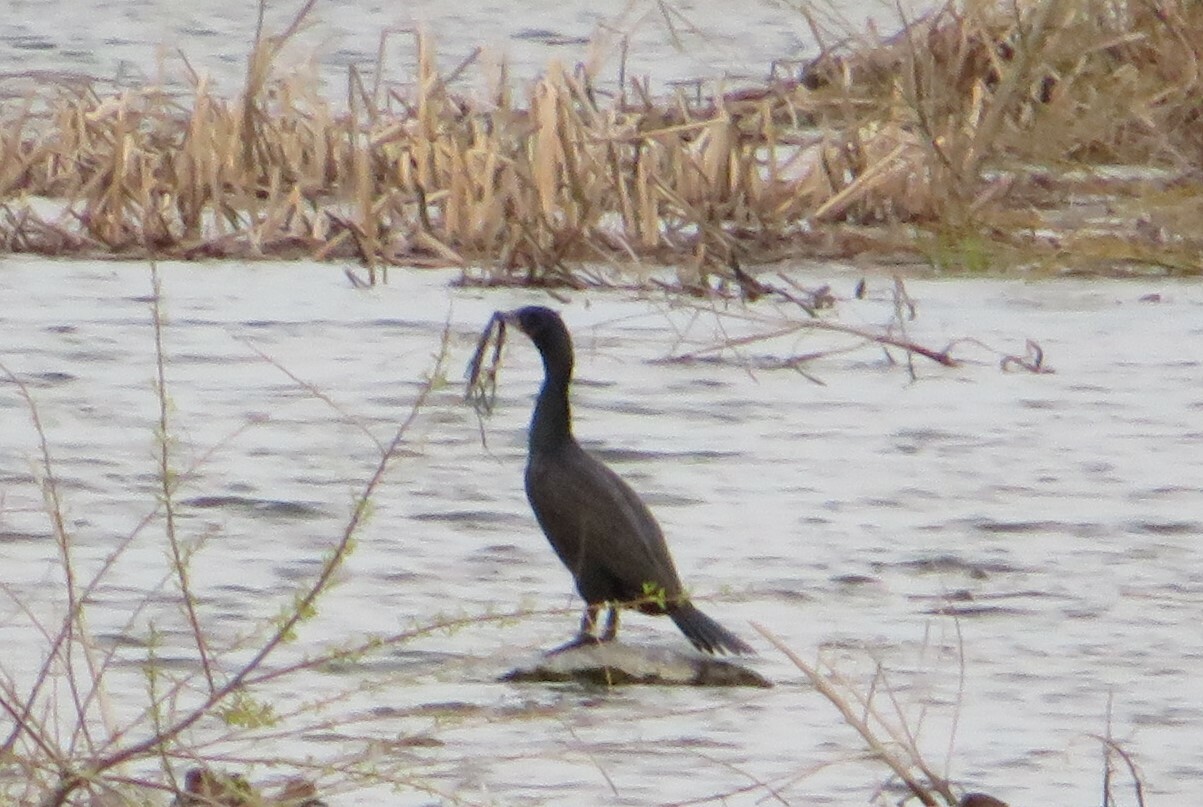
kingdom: Animalia
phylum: Chordata
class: Aves
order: Suliformes
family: Phalacrocoracidae
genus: Phalacrocorax
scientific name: Phalacrocorax auritus
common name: Double-crested cormorant
